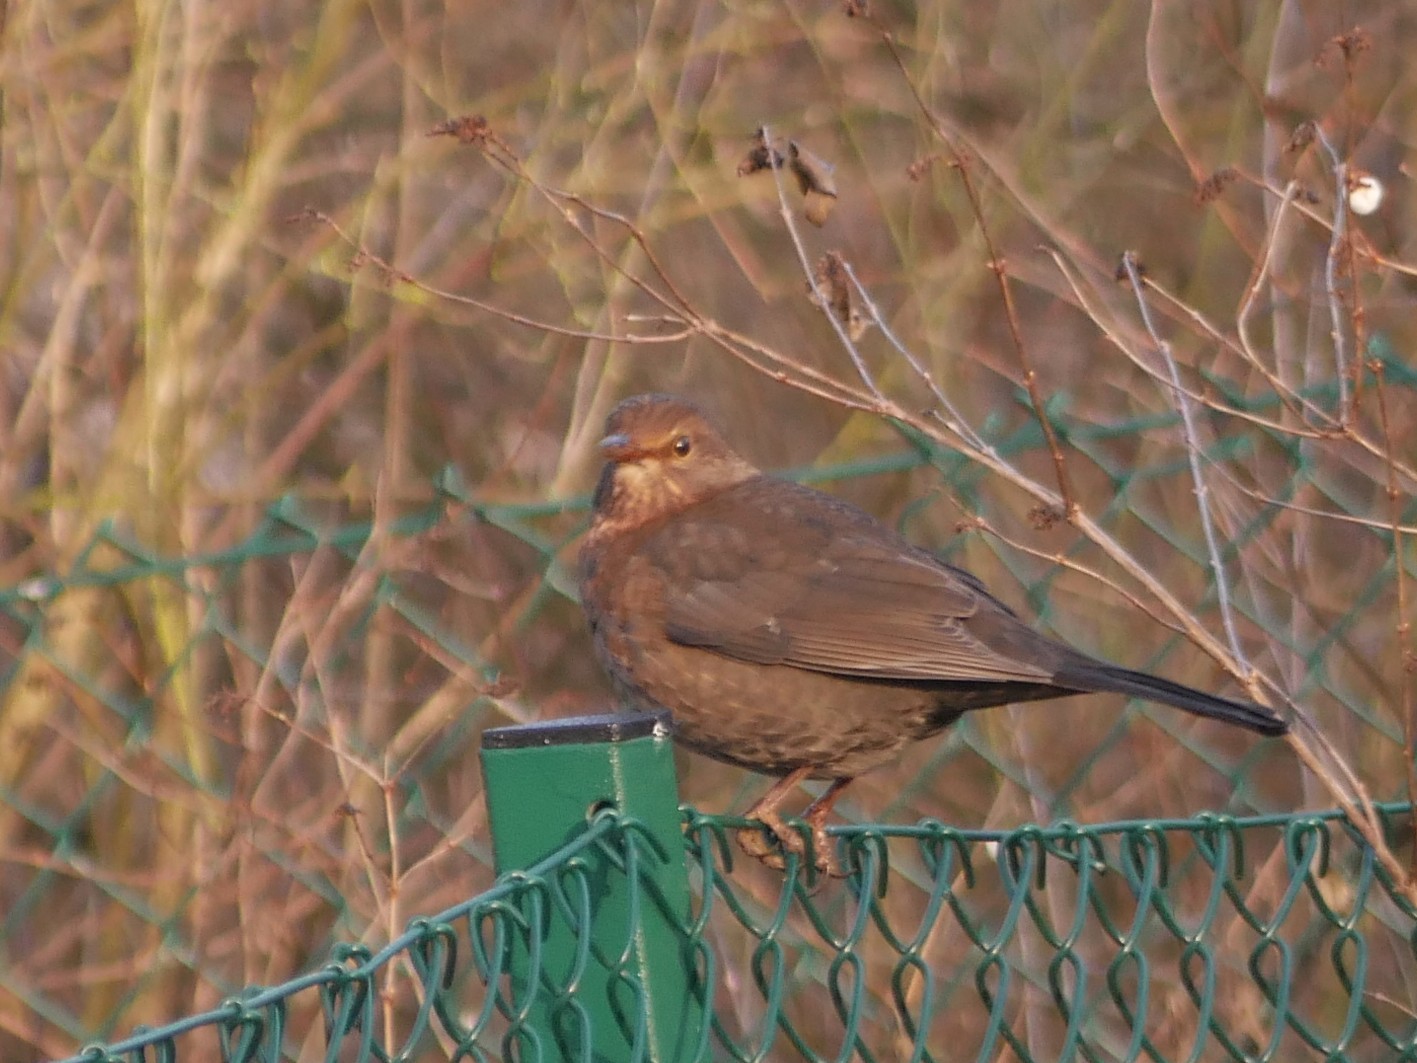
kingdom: Animalia
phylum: Chordata
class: Aves
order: Passeriformes
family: Turdidae
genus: Turdus
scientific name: Turdus merula
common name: Common blackbird
